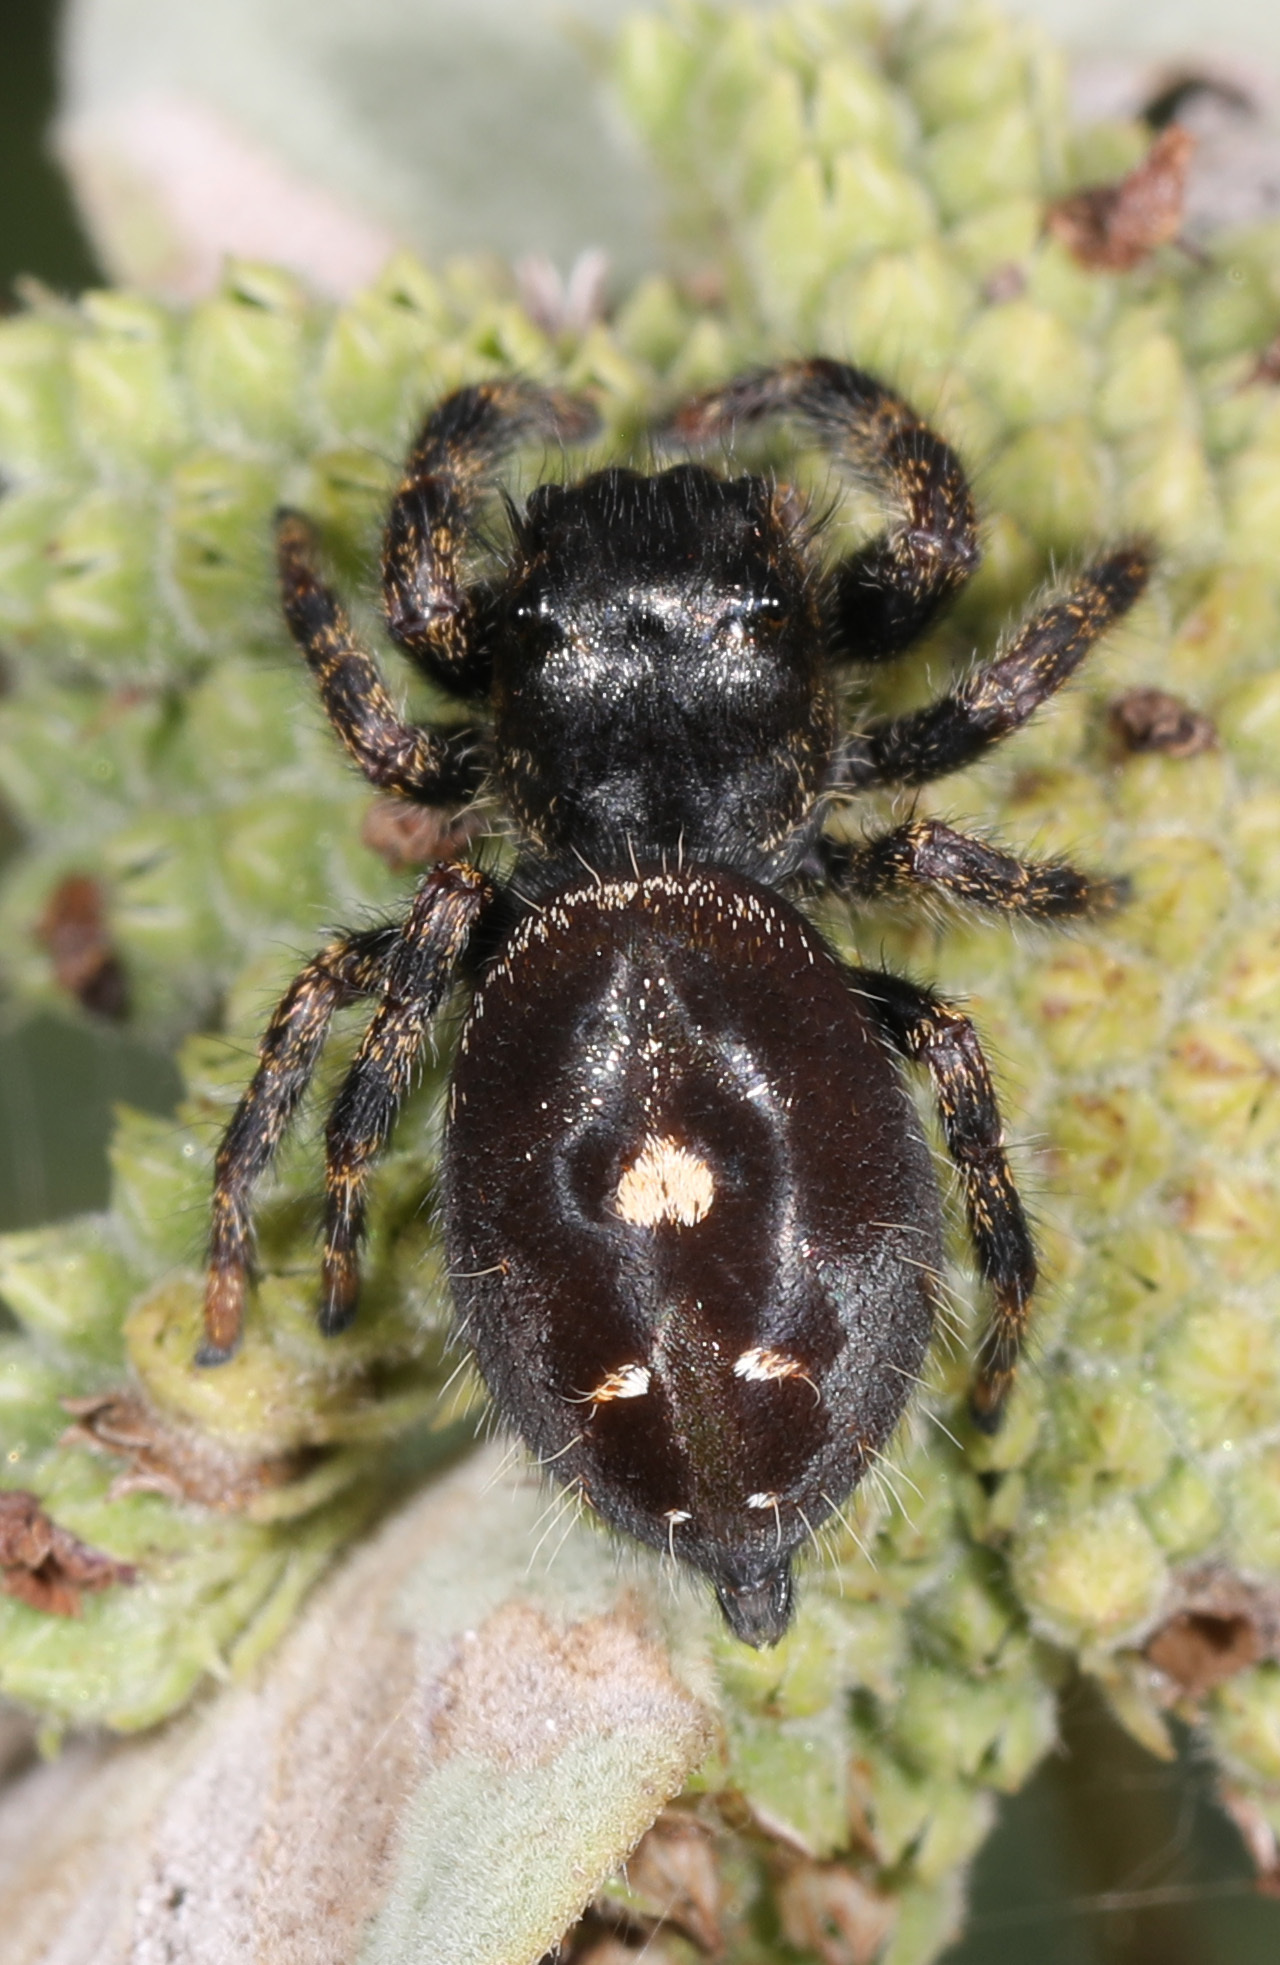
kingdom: Animalia
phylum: Arthropoda
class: Arachnida
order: Araneae
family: Salticidae
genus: Phidippus
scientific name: Phidippus audax
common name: Bold jumper
